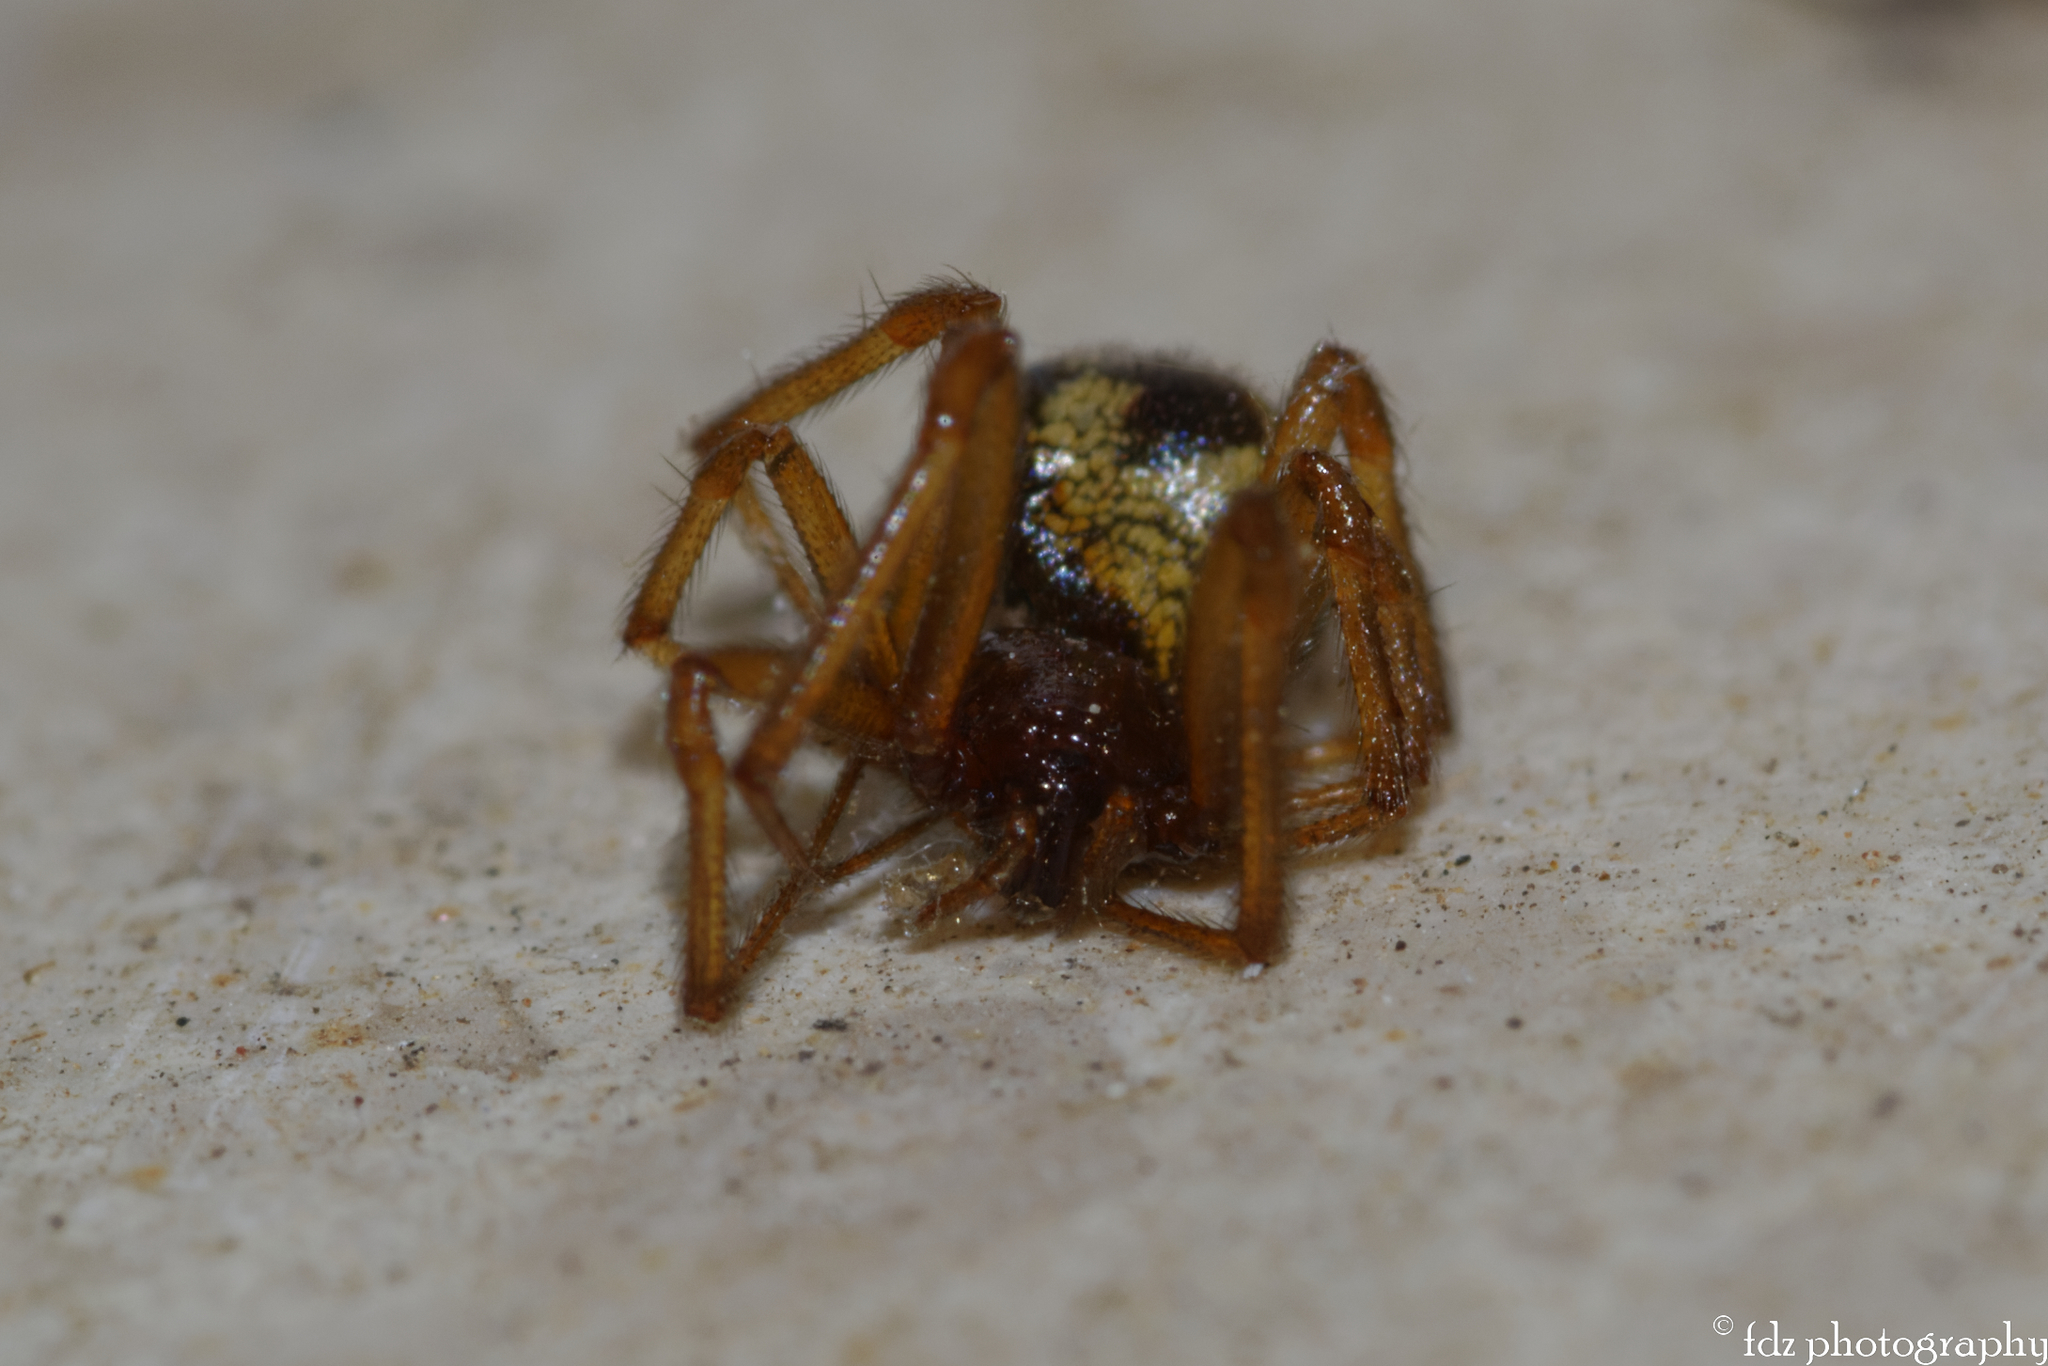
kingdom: Animalia
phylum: Arthropoda
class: Arachnida
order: Araneae
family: Theridiidae
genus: Steatoda
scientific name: Steatoda triangulosa
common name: Triangulate bud spider
